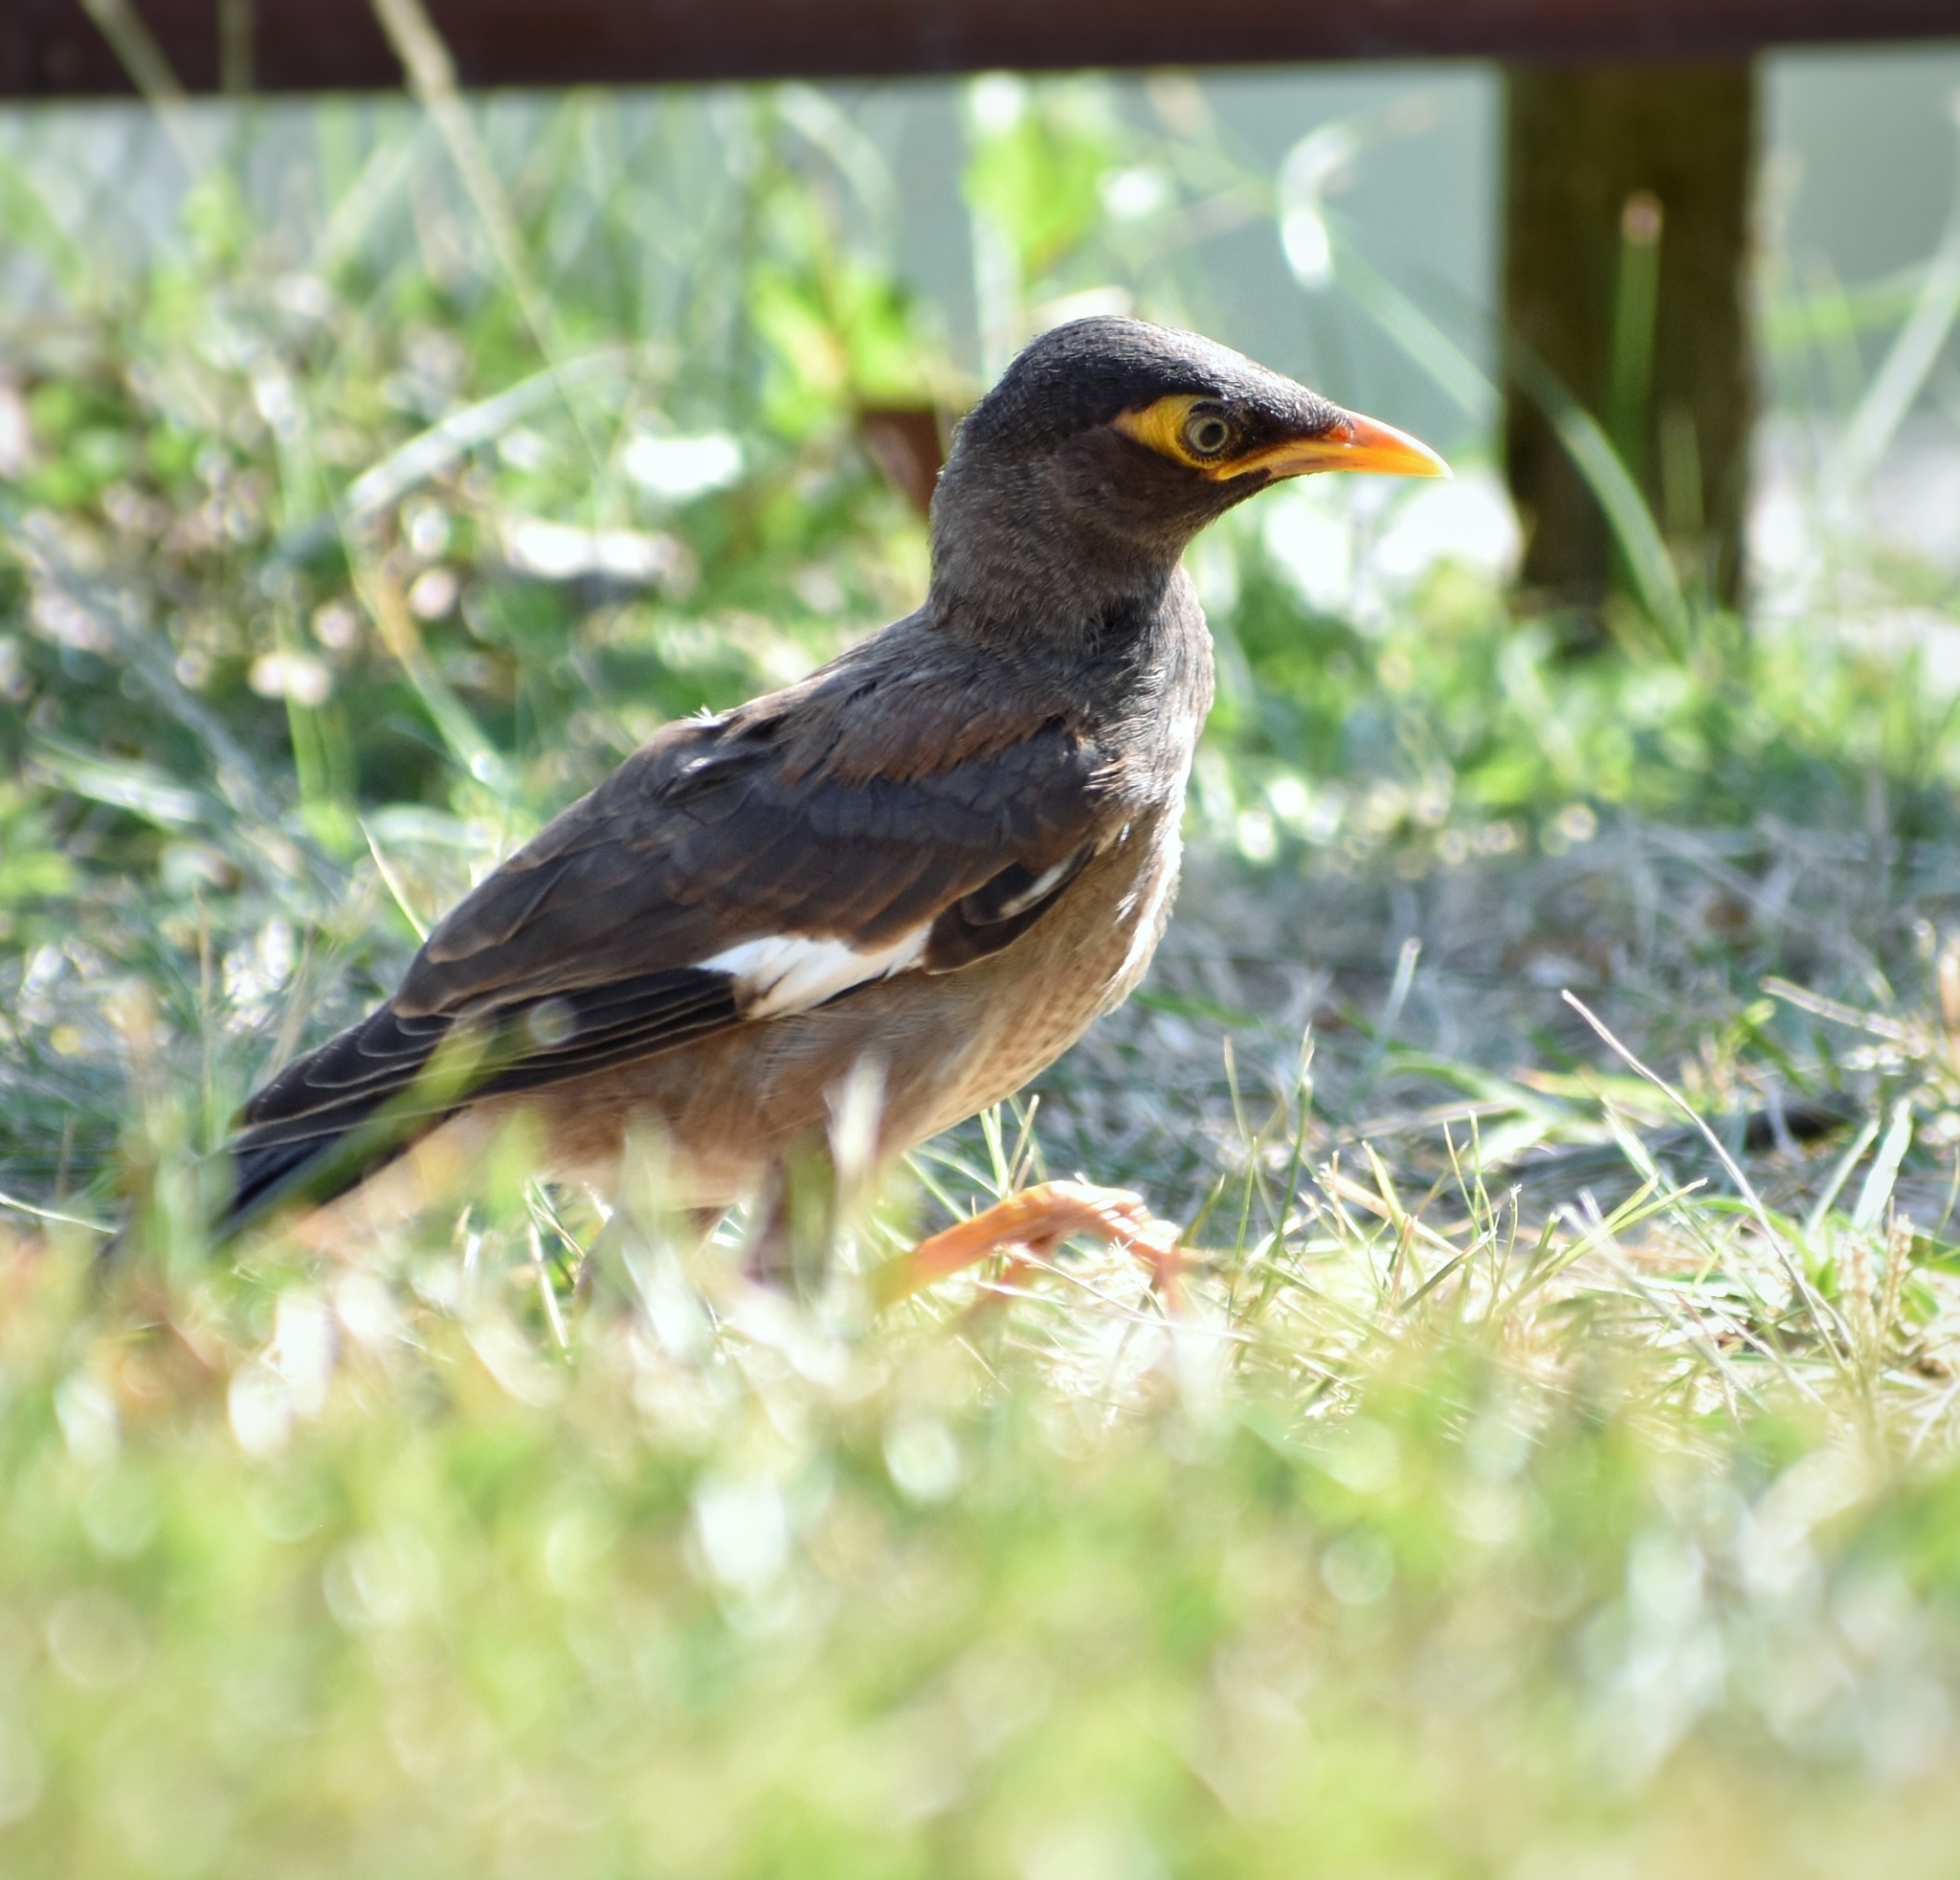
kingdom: Animalia
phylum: Chordata
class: Aves
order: Passeriformes
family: Sturnidae
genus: Acridotheres
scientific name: Acridotheres tristis
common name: Common myna
